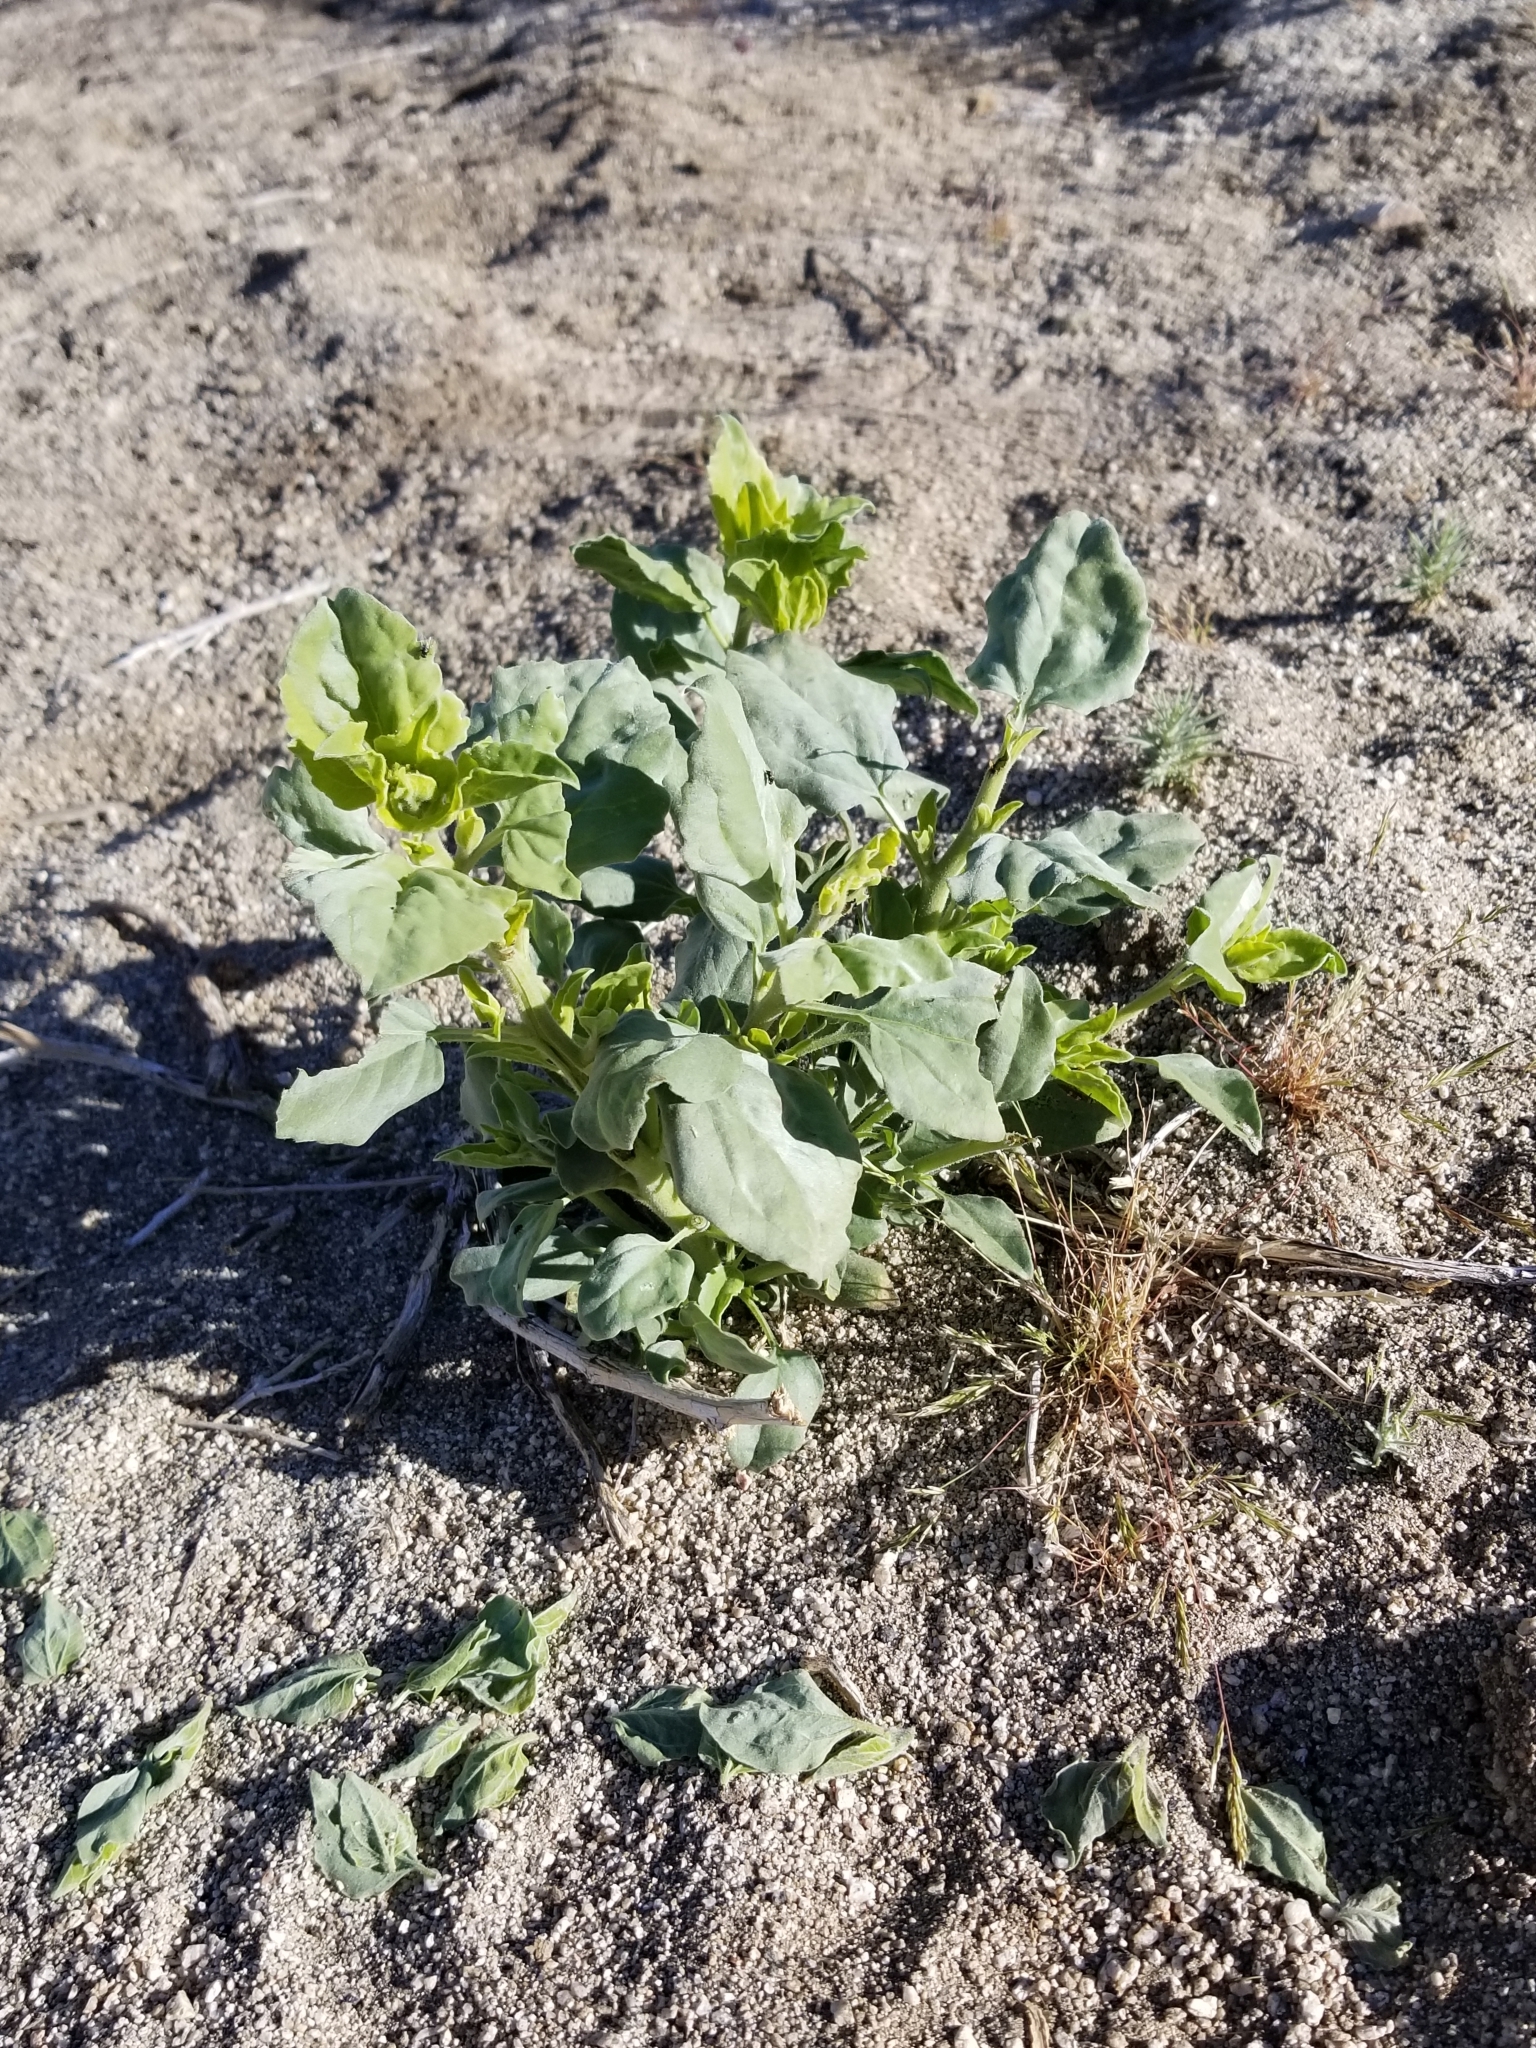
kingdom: Plantae
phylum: Tracheophyta
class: Magnoliopsida
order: Asterales
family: Asteraceae
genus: Verbesina
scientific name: Verbesina encelioides
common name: Golden crownbeard
